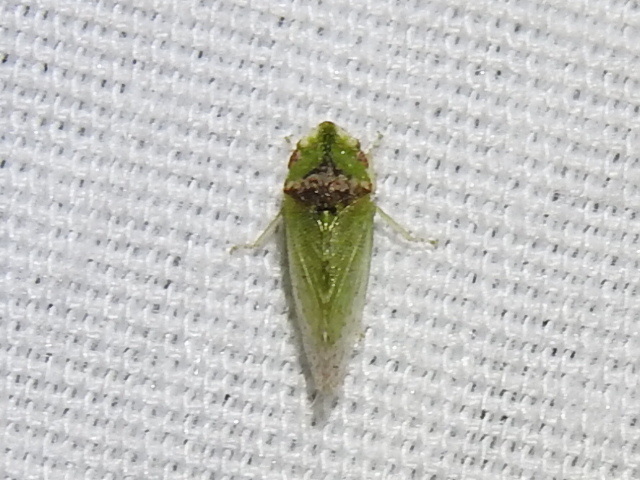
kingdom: Animalia
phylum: Arthropoda
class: Insecta
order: Hemiptera
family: Cicadellidae
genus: Xerophloea
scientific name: Xerophloea viridis
